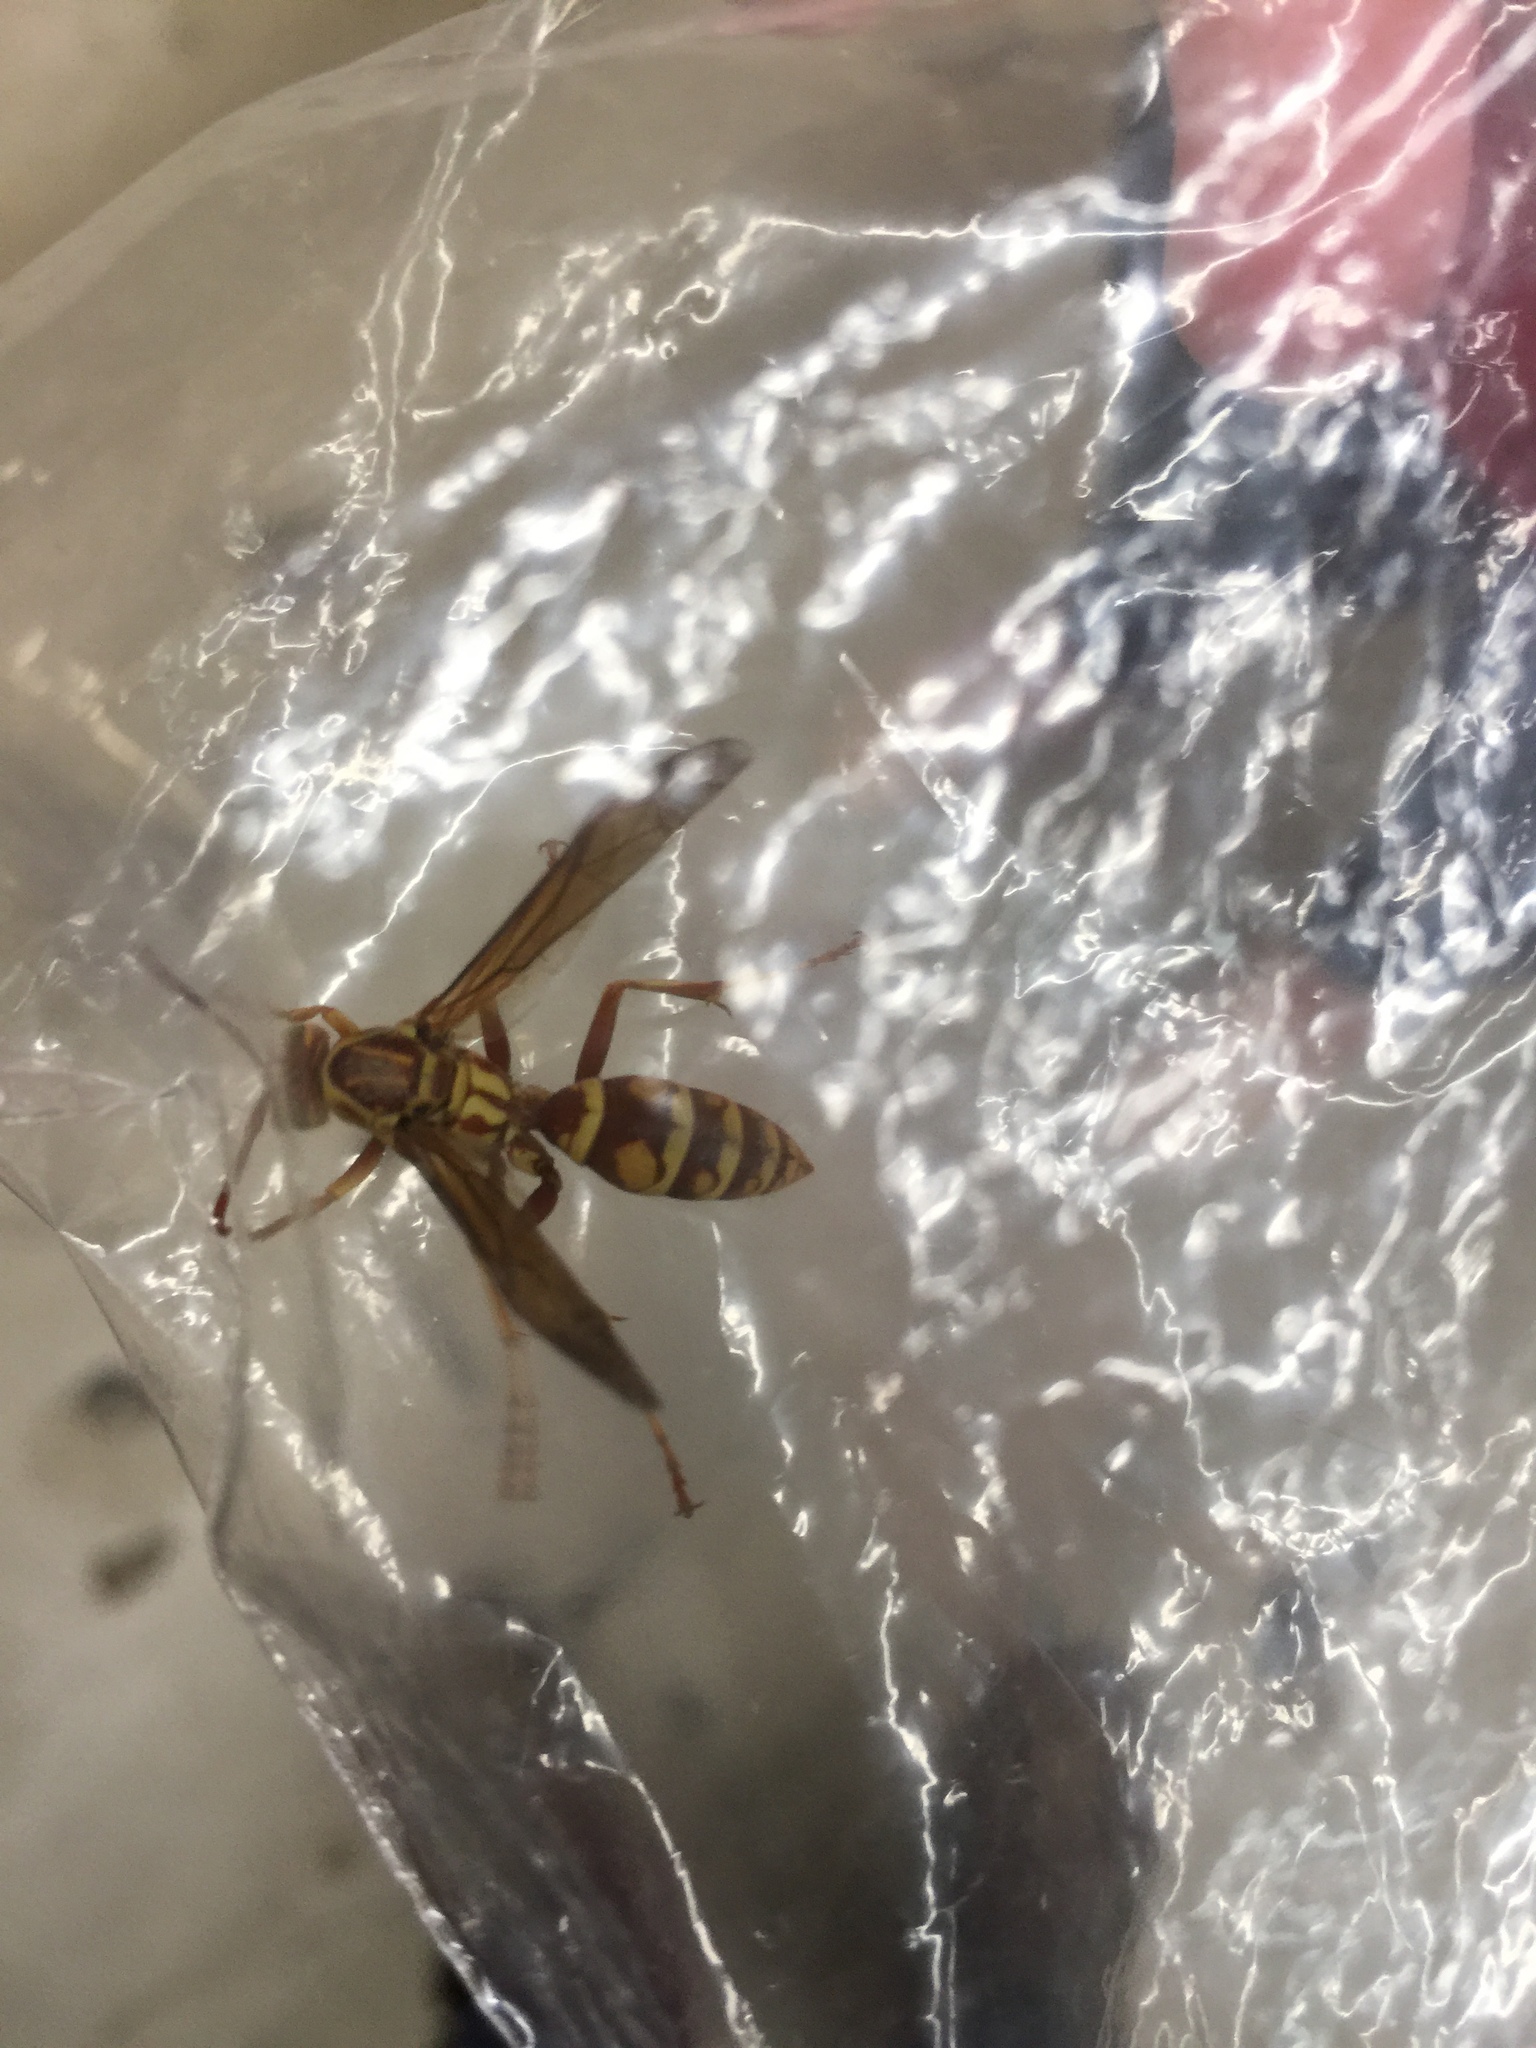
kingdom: Animalia
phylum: Arthropoda
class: Insecta
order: Hymenoptera
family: Eumenidae
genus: Polistes
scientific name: Polistes apachus
